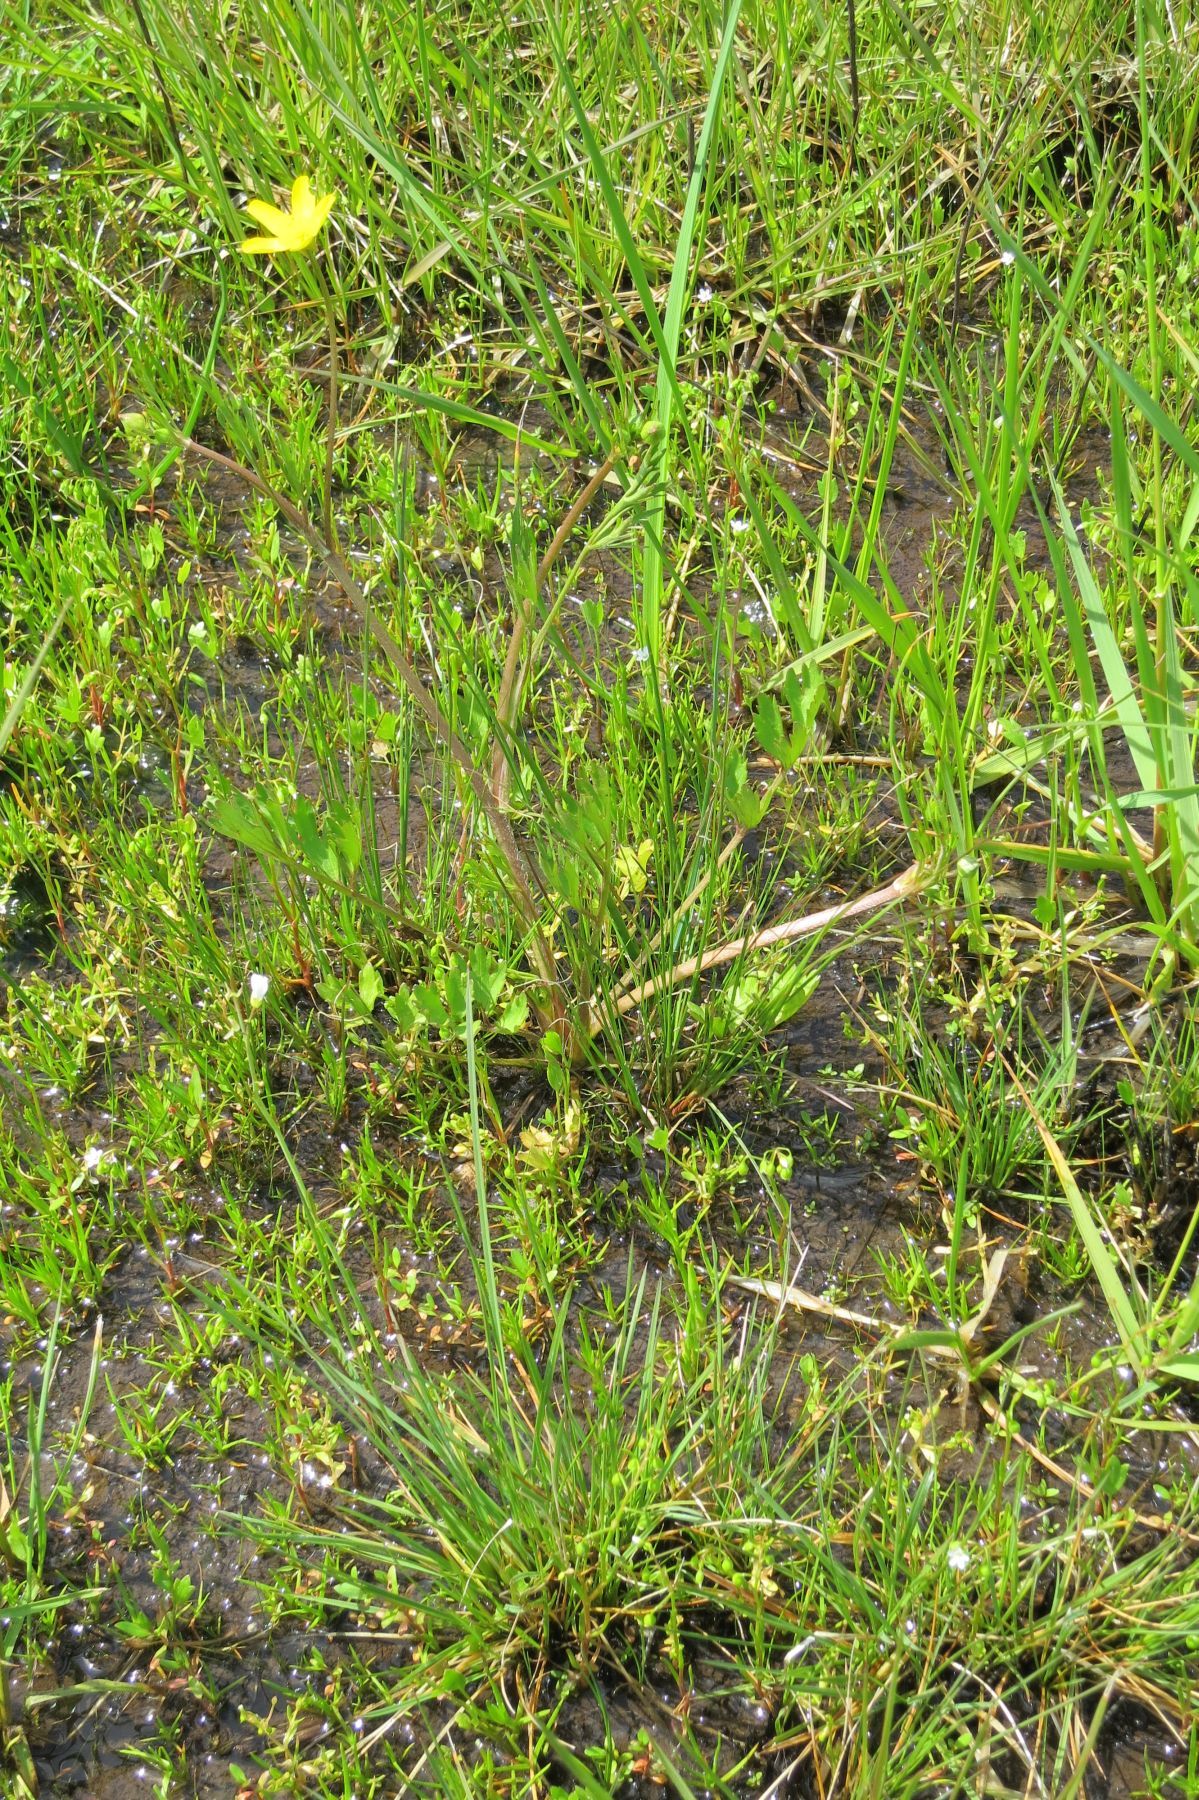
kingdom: Plantae
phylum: Tracheophyta
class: Magnoliopsida
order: Ranunculales
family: Ranunculaceae
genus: Ranunculus
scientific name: Ranunculus orthorhynchus
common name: Straight-beak buttercup
